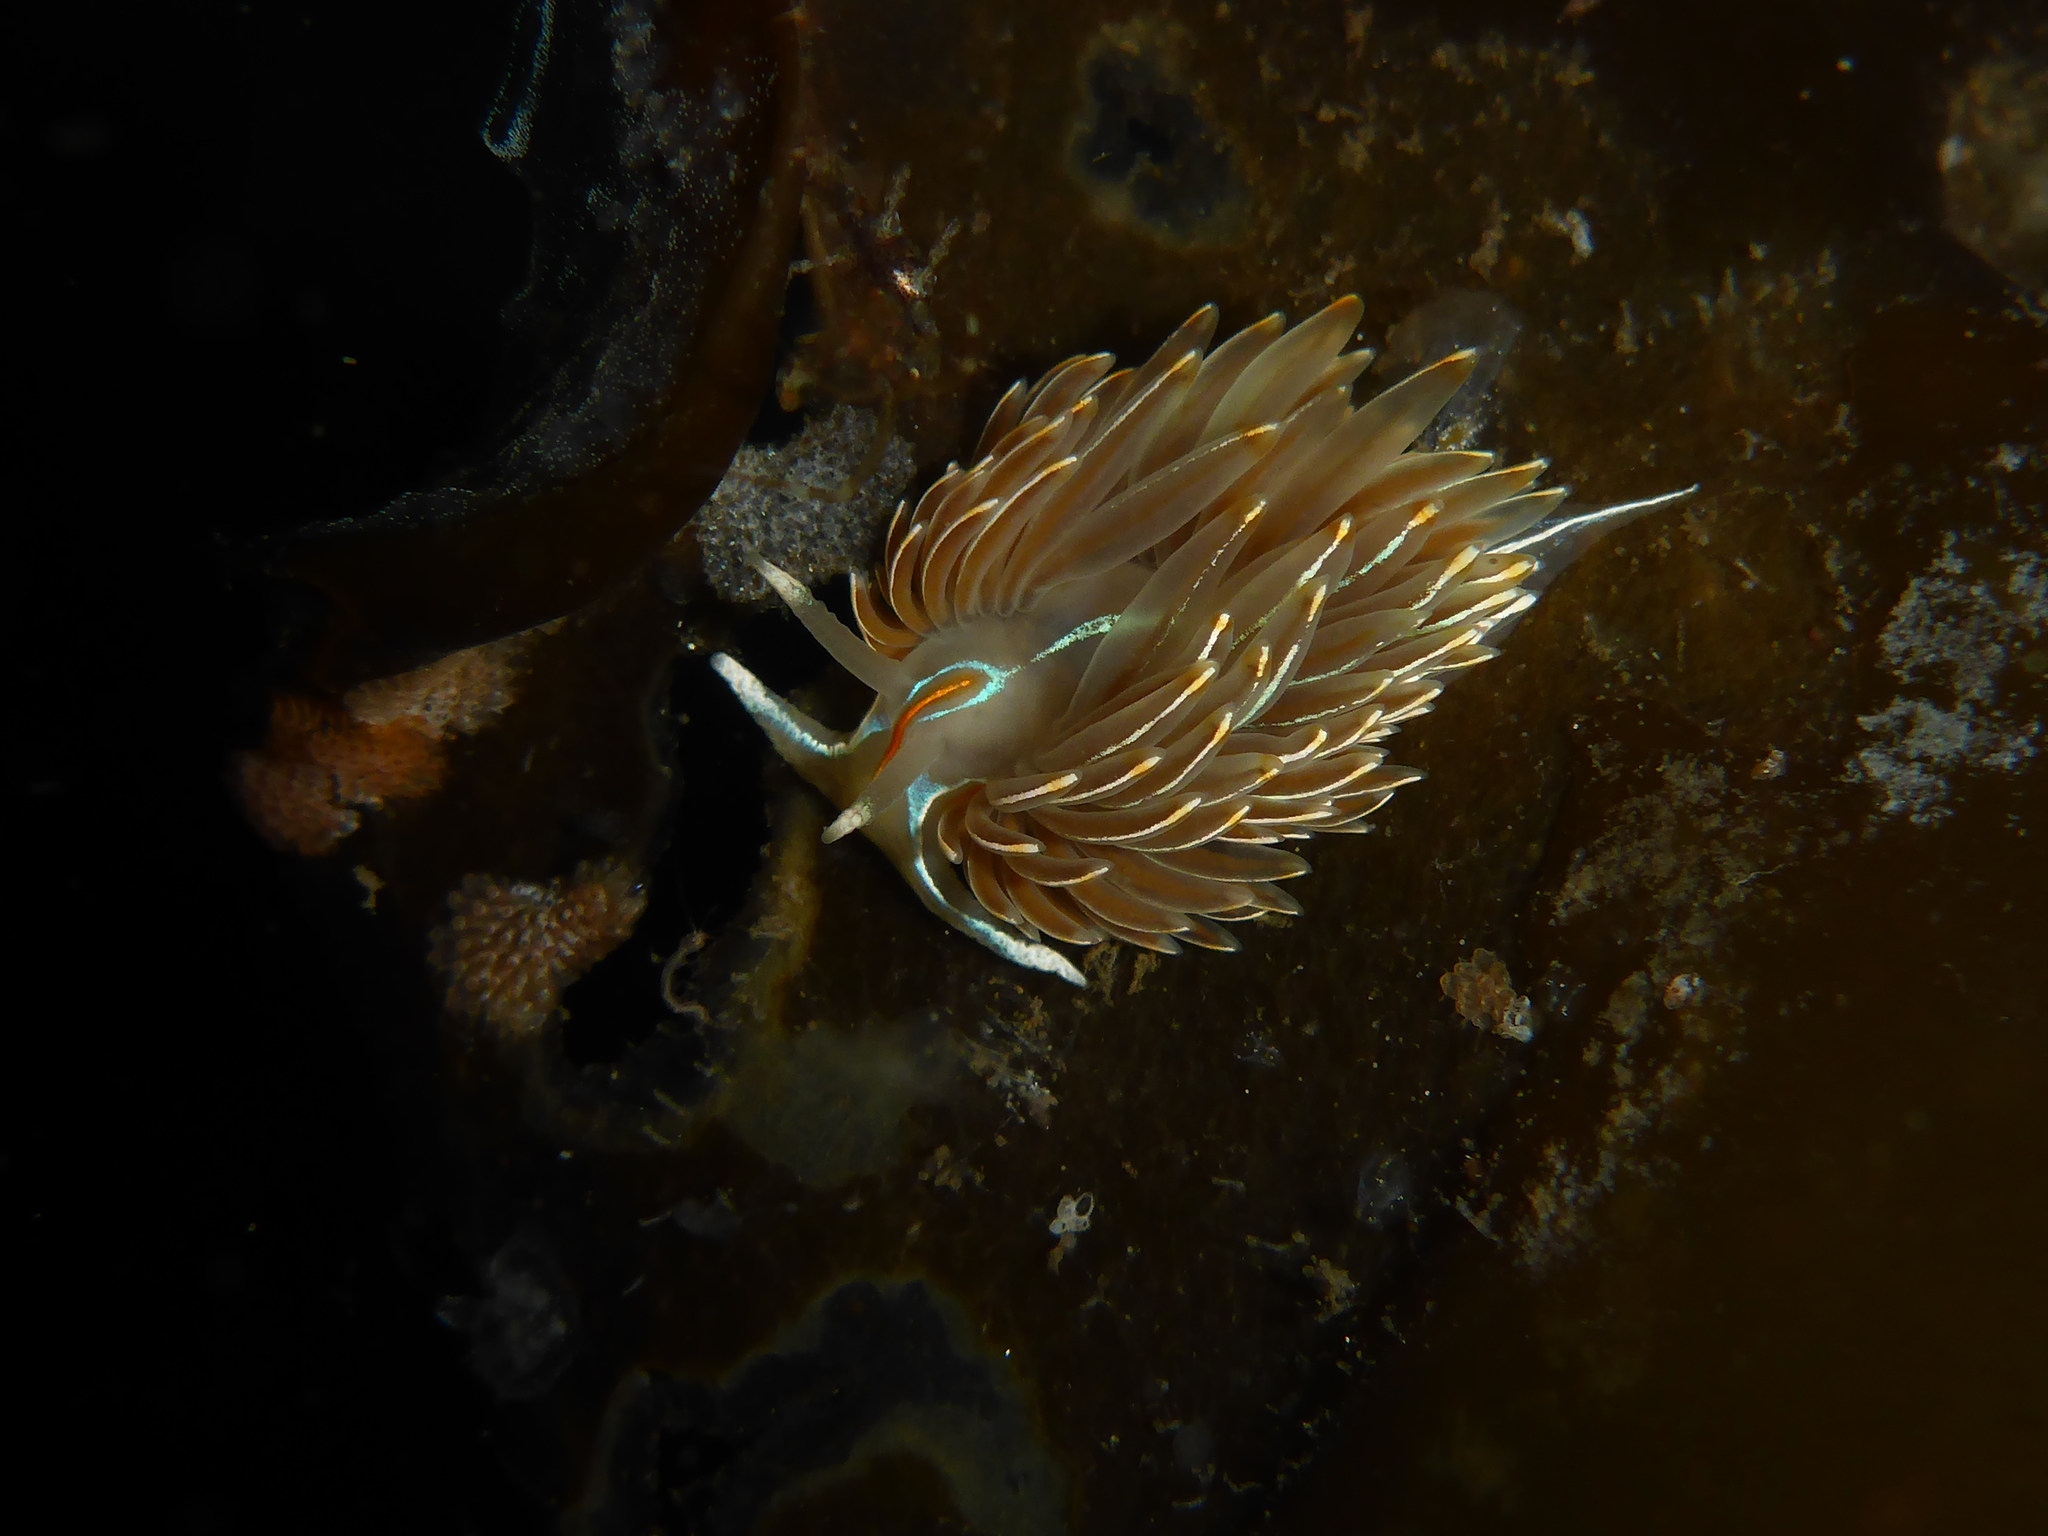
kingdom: Animalia
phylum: Mollusca
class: Gastropoda
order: Nudibranchia
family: Myrrhinidae
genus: Hermissenda
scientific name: Hermissenda crassicornis
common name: Hermissenda
